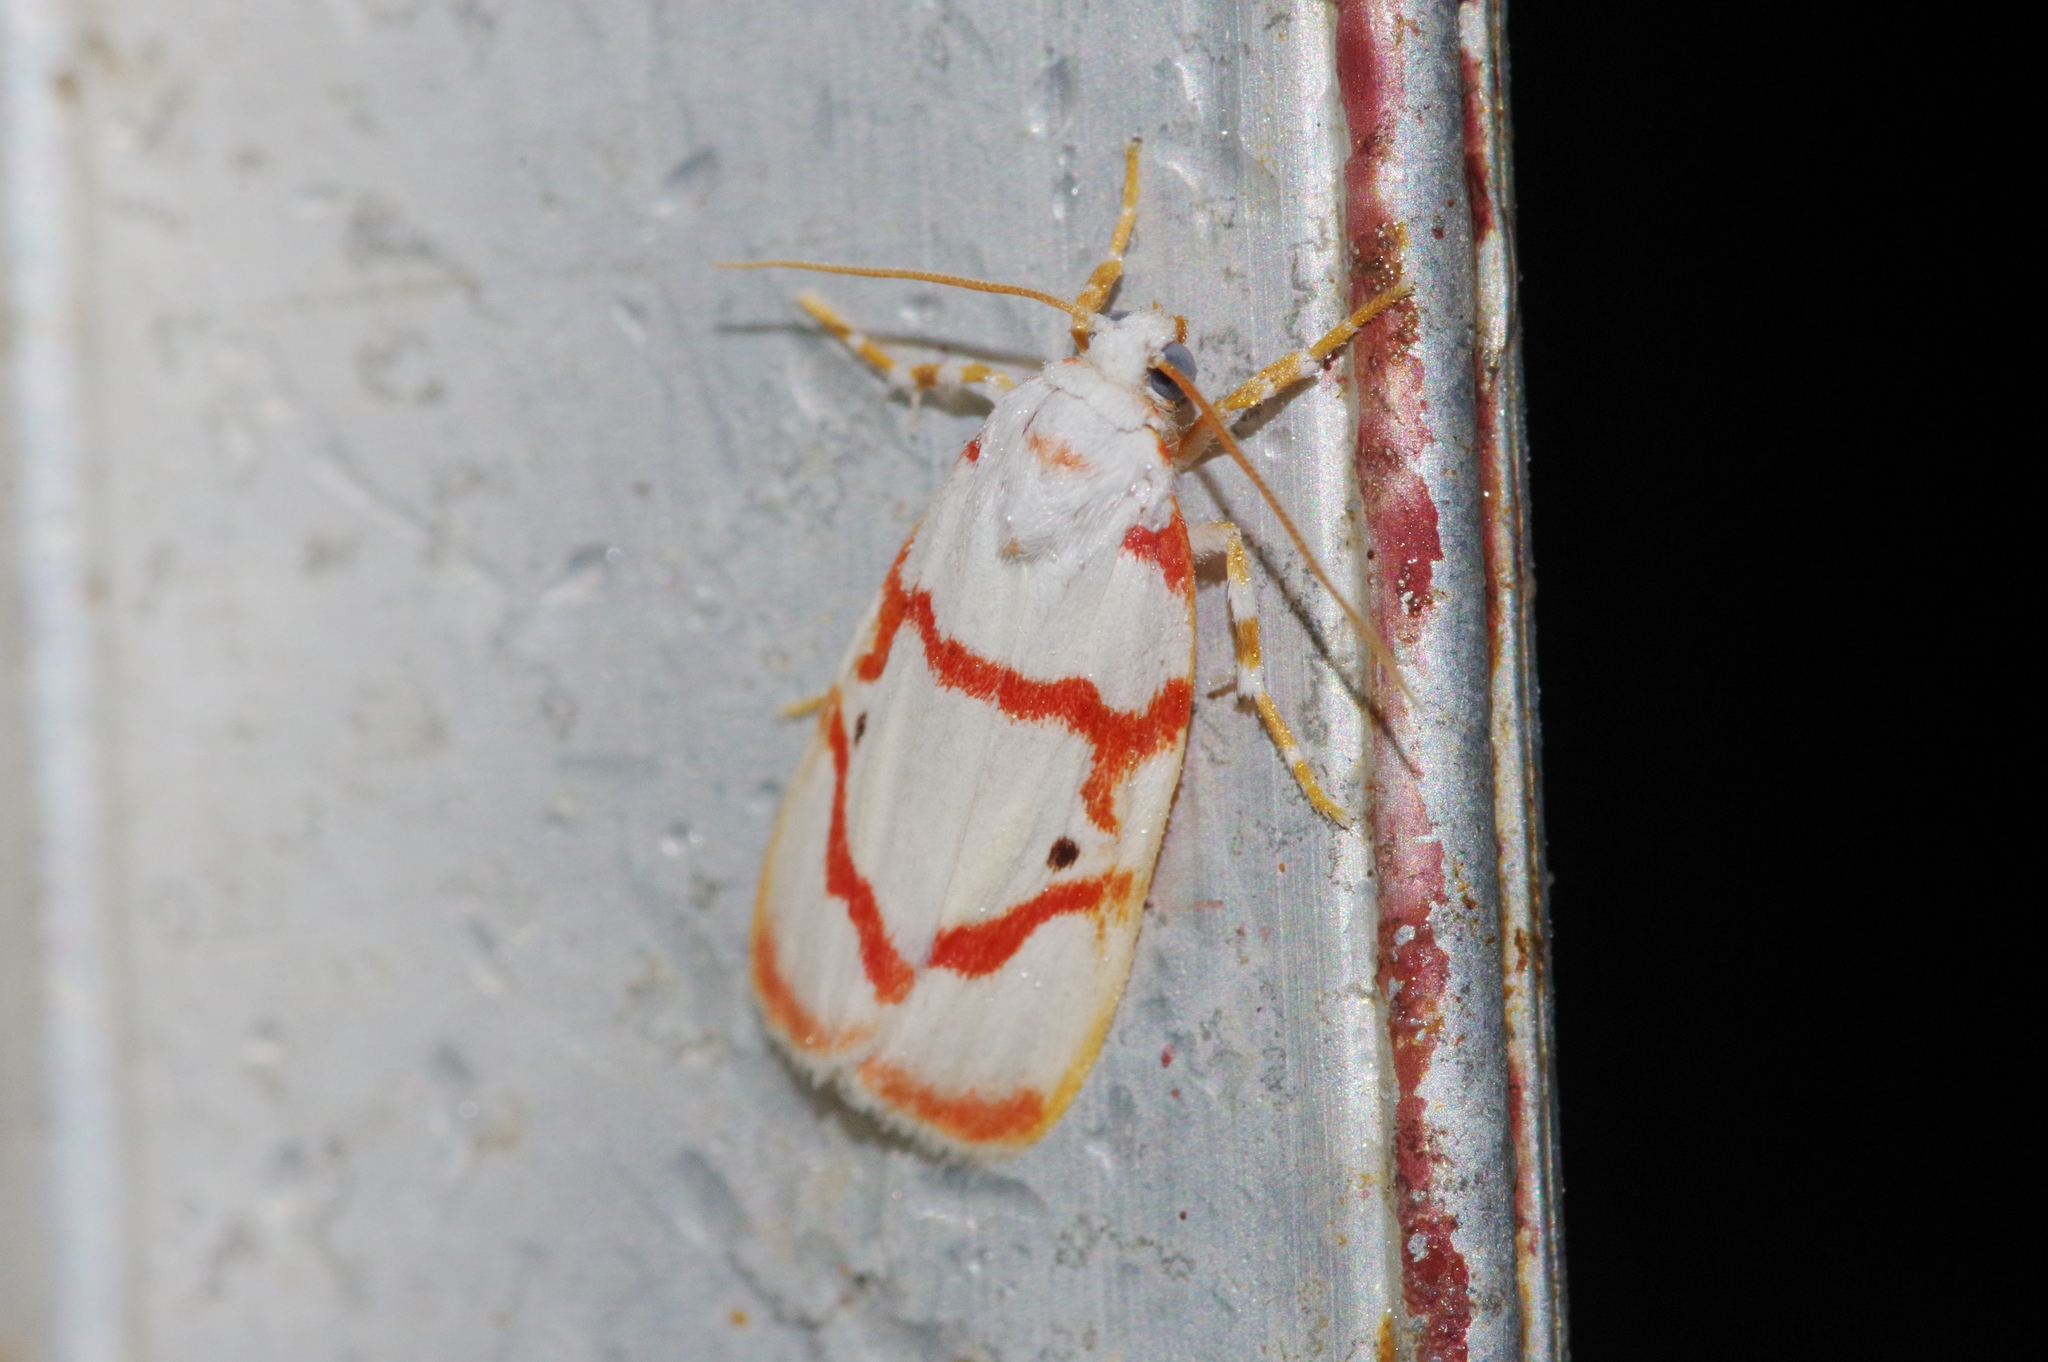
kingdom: Animalia
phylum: Arthropoda
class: Insecta
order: Lepidoptera
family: Erebidae
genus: Cyana
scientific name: Cyana unipuncta
